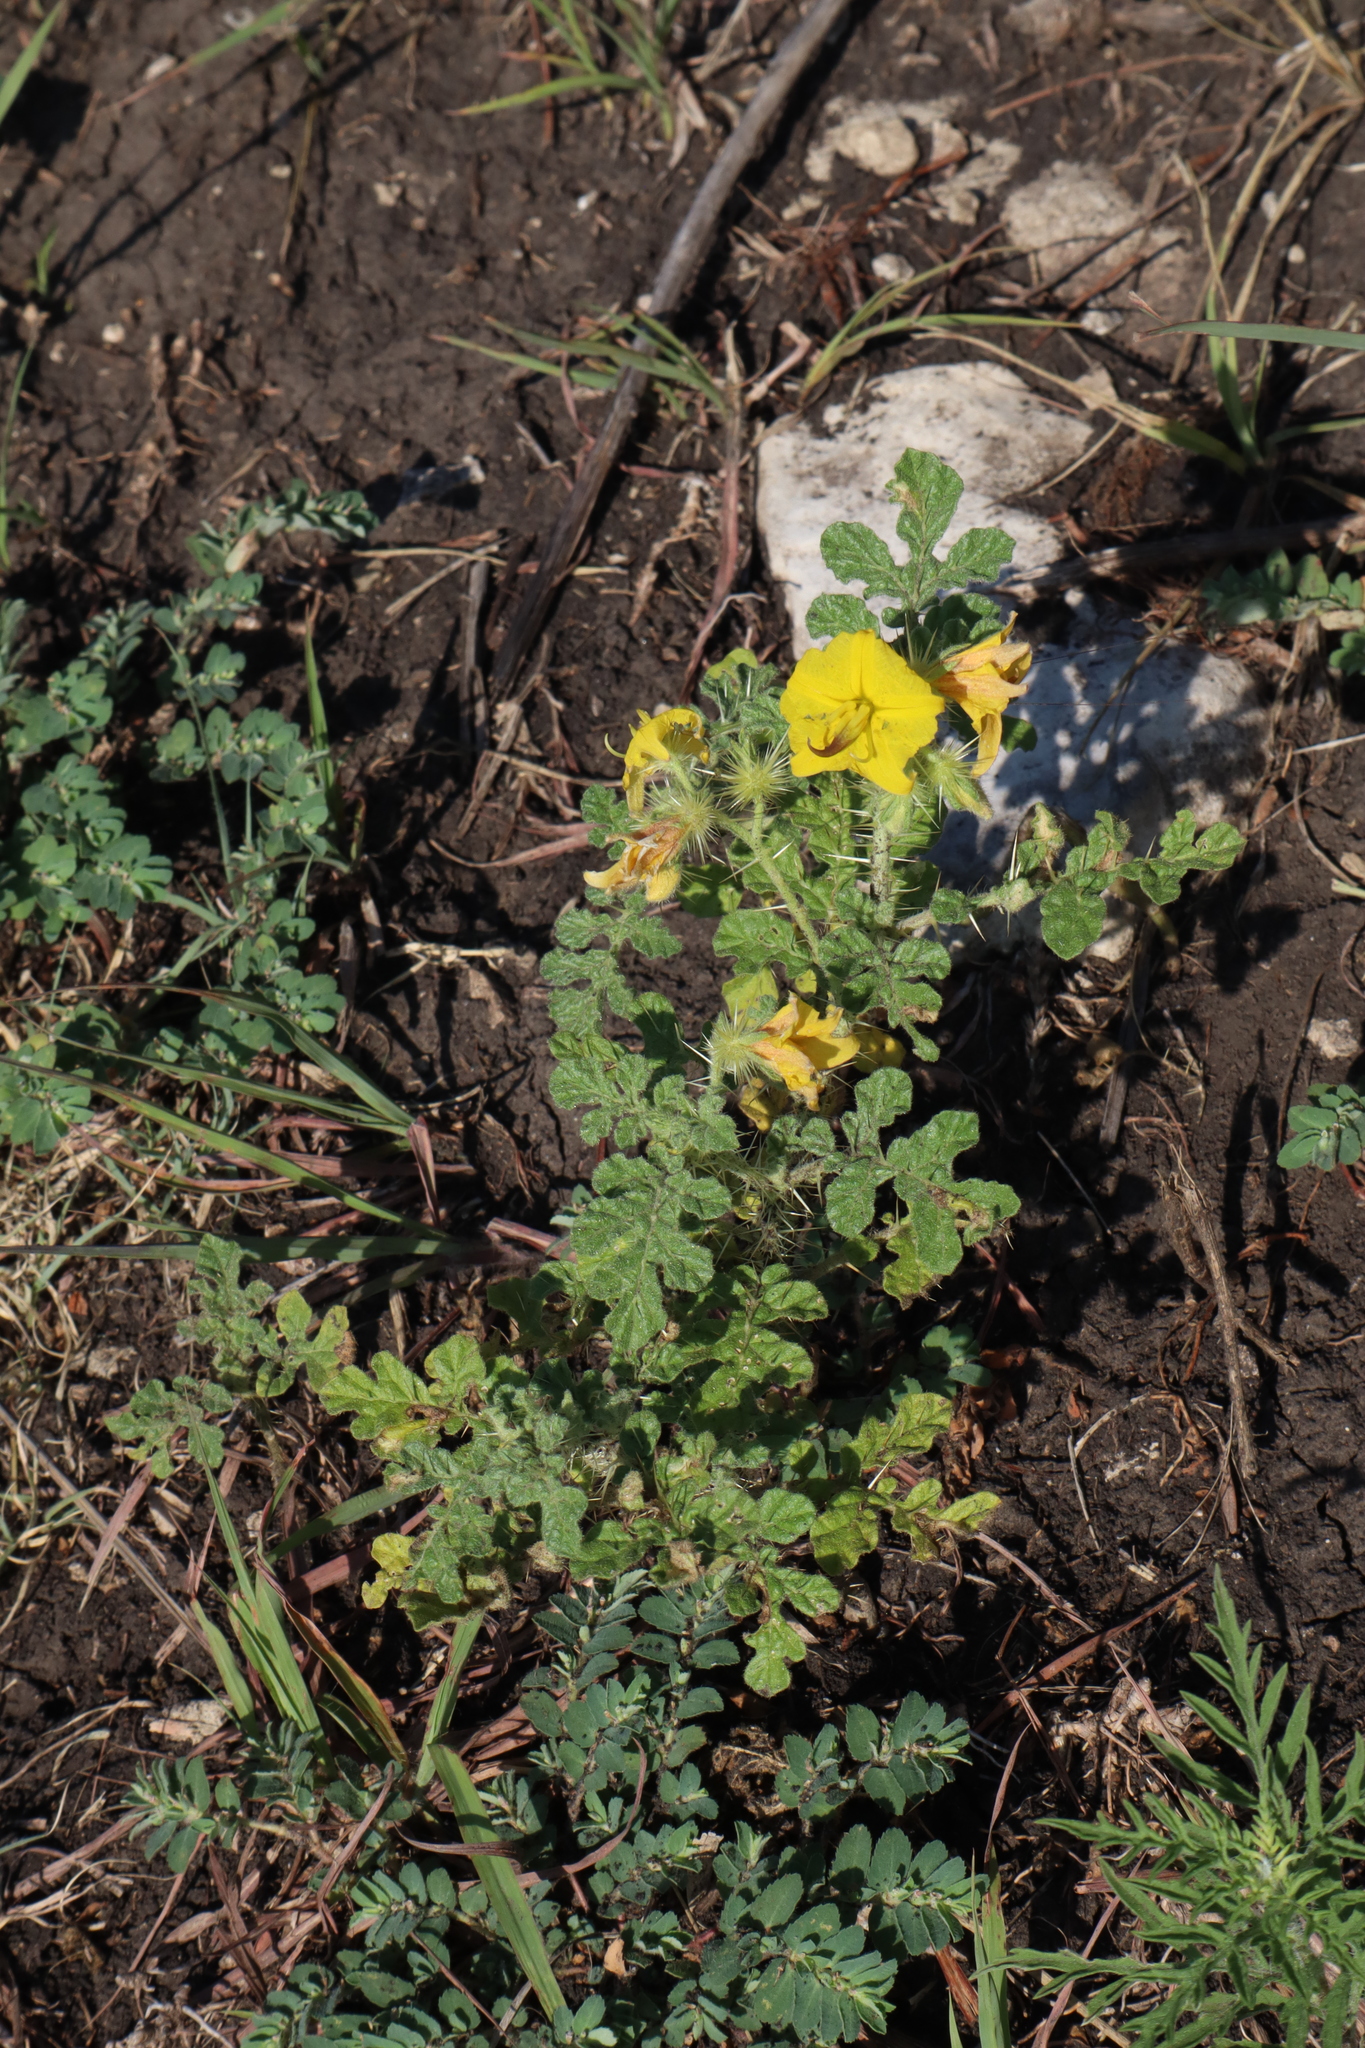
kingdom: Plantae
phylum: Tracheophyta
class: Magnoliopsida
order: Solanales
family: Solanaceae
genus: Solanum
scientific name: Solanum angustifolium
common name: Buffalobur nightshade
